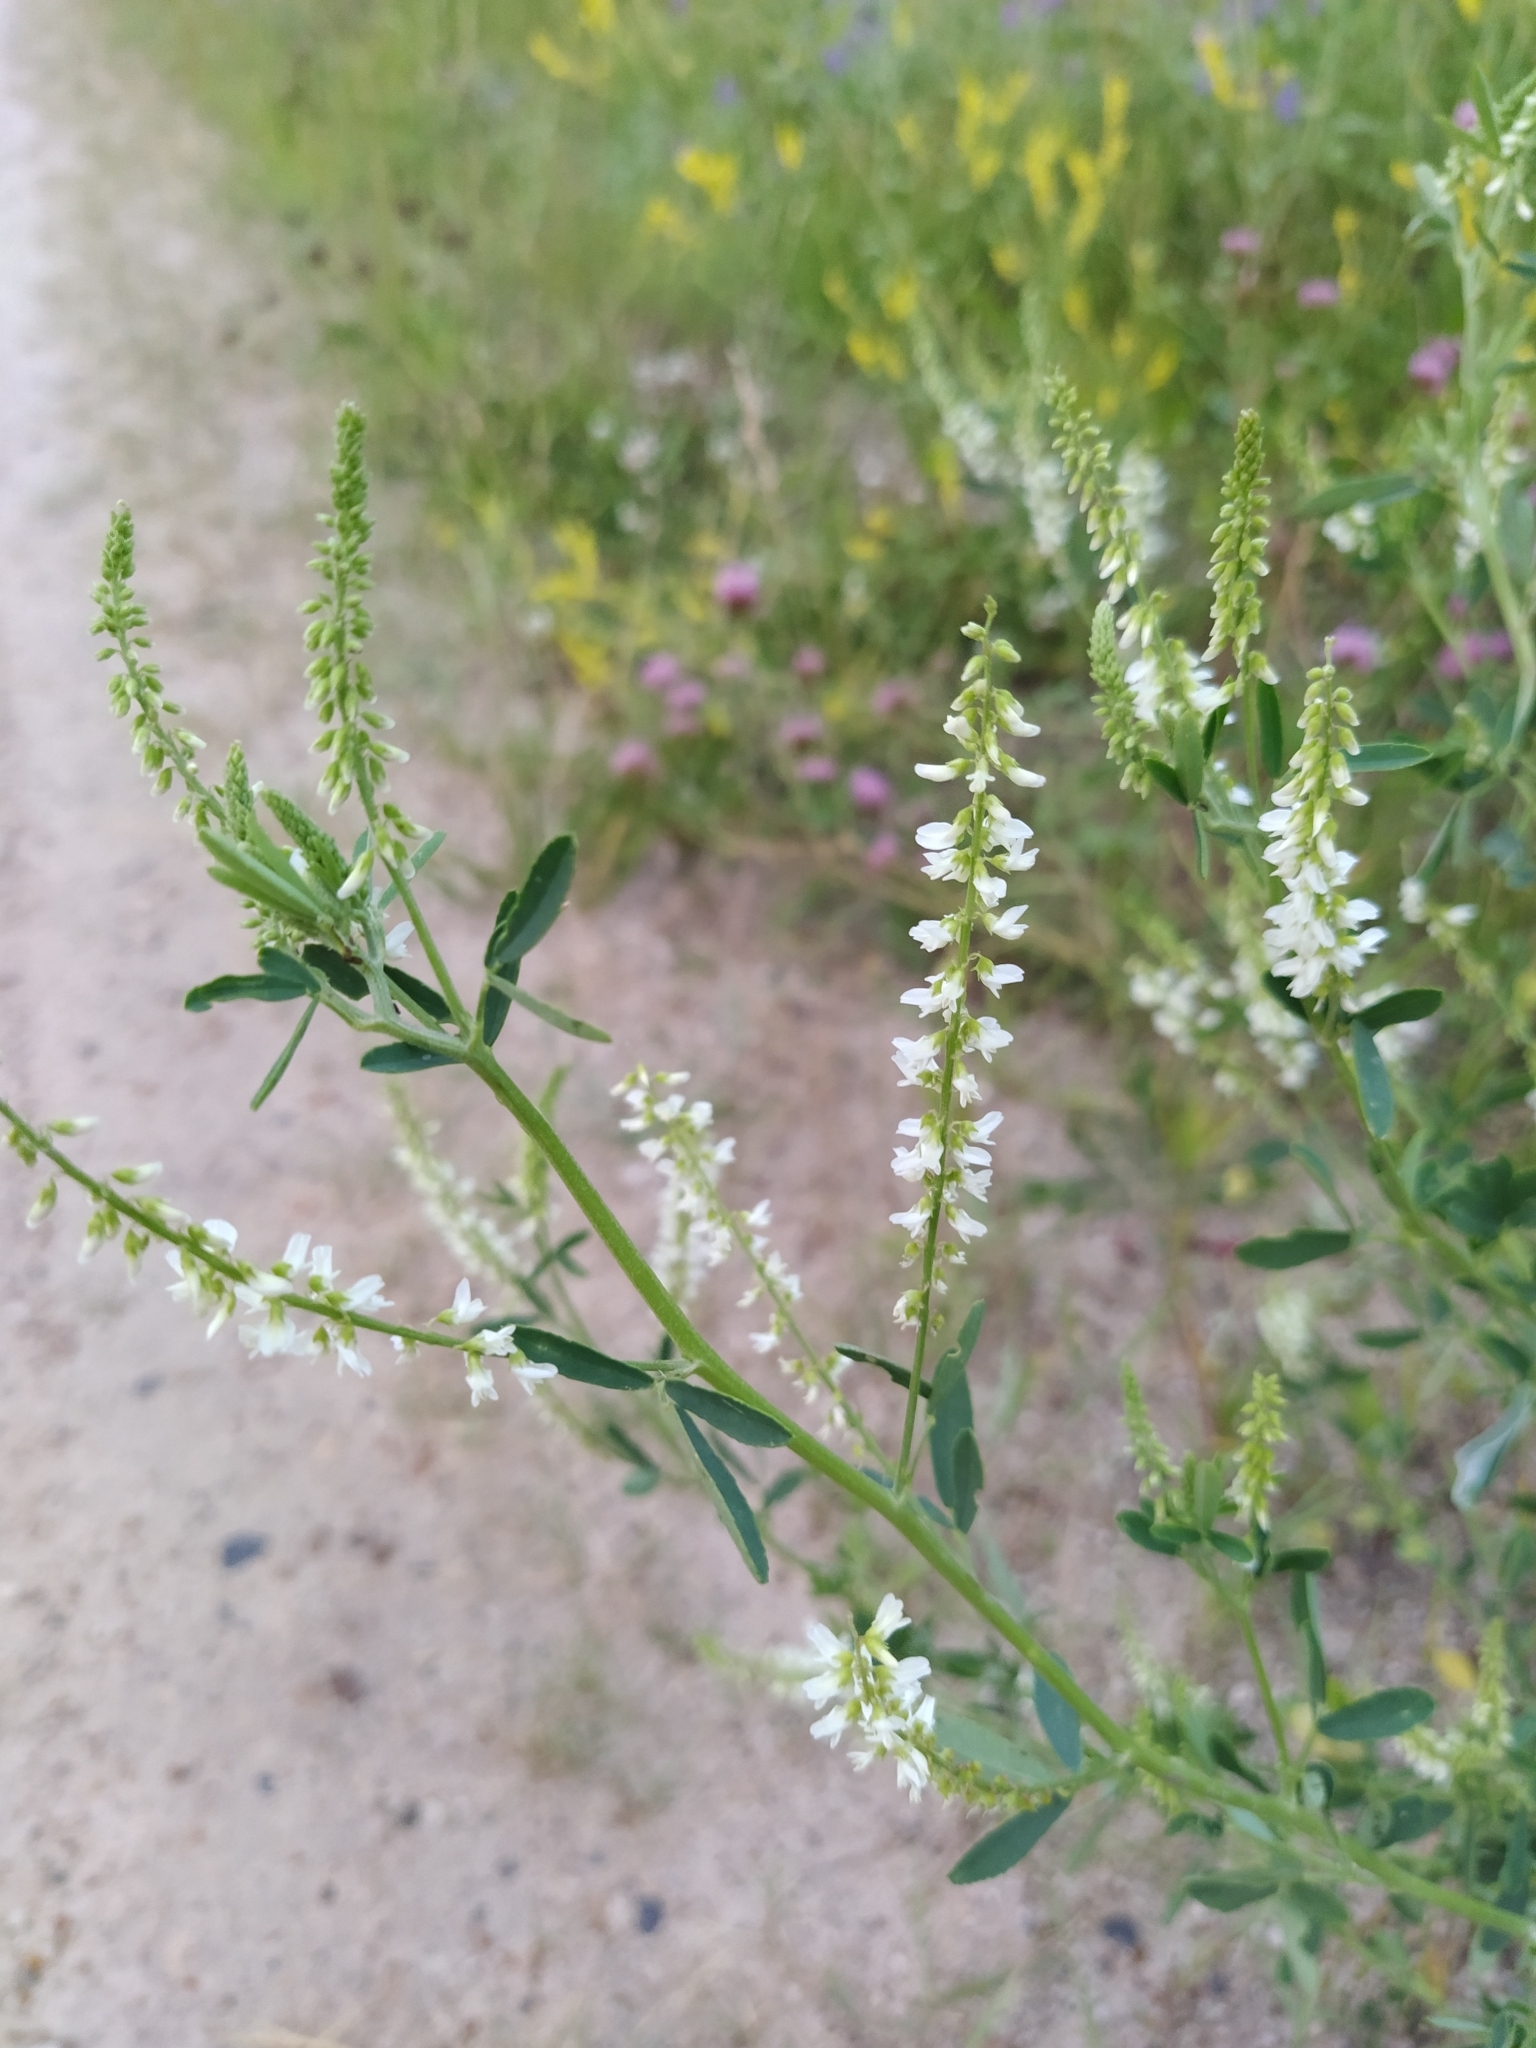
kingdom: Plantae
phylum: Tracheophyta
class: Magnoliopsida
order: Fabales
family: Fabaceae
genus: Melilotus
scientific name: Melilotus albus
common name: White melilot
